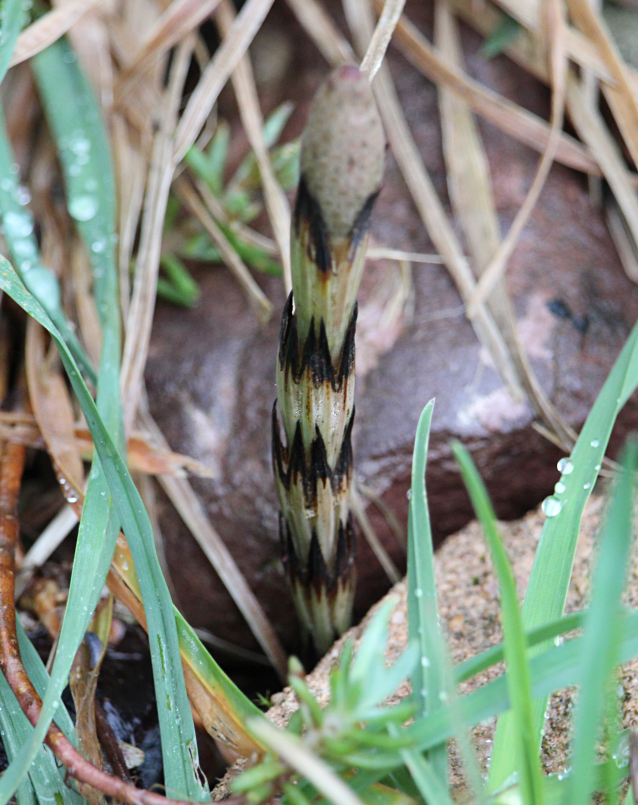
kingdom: Plantae
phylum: Tracheophyta
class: Polypodiopsida
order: Equisetales
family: Equisetaceae
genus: Equisetum
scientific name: Equisetum arvense
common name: Field horsetail
